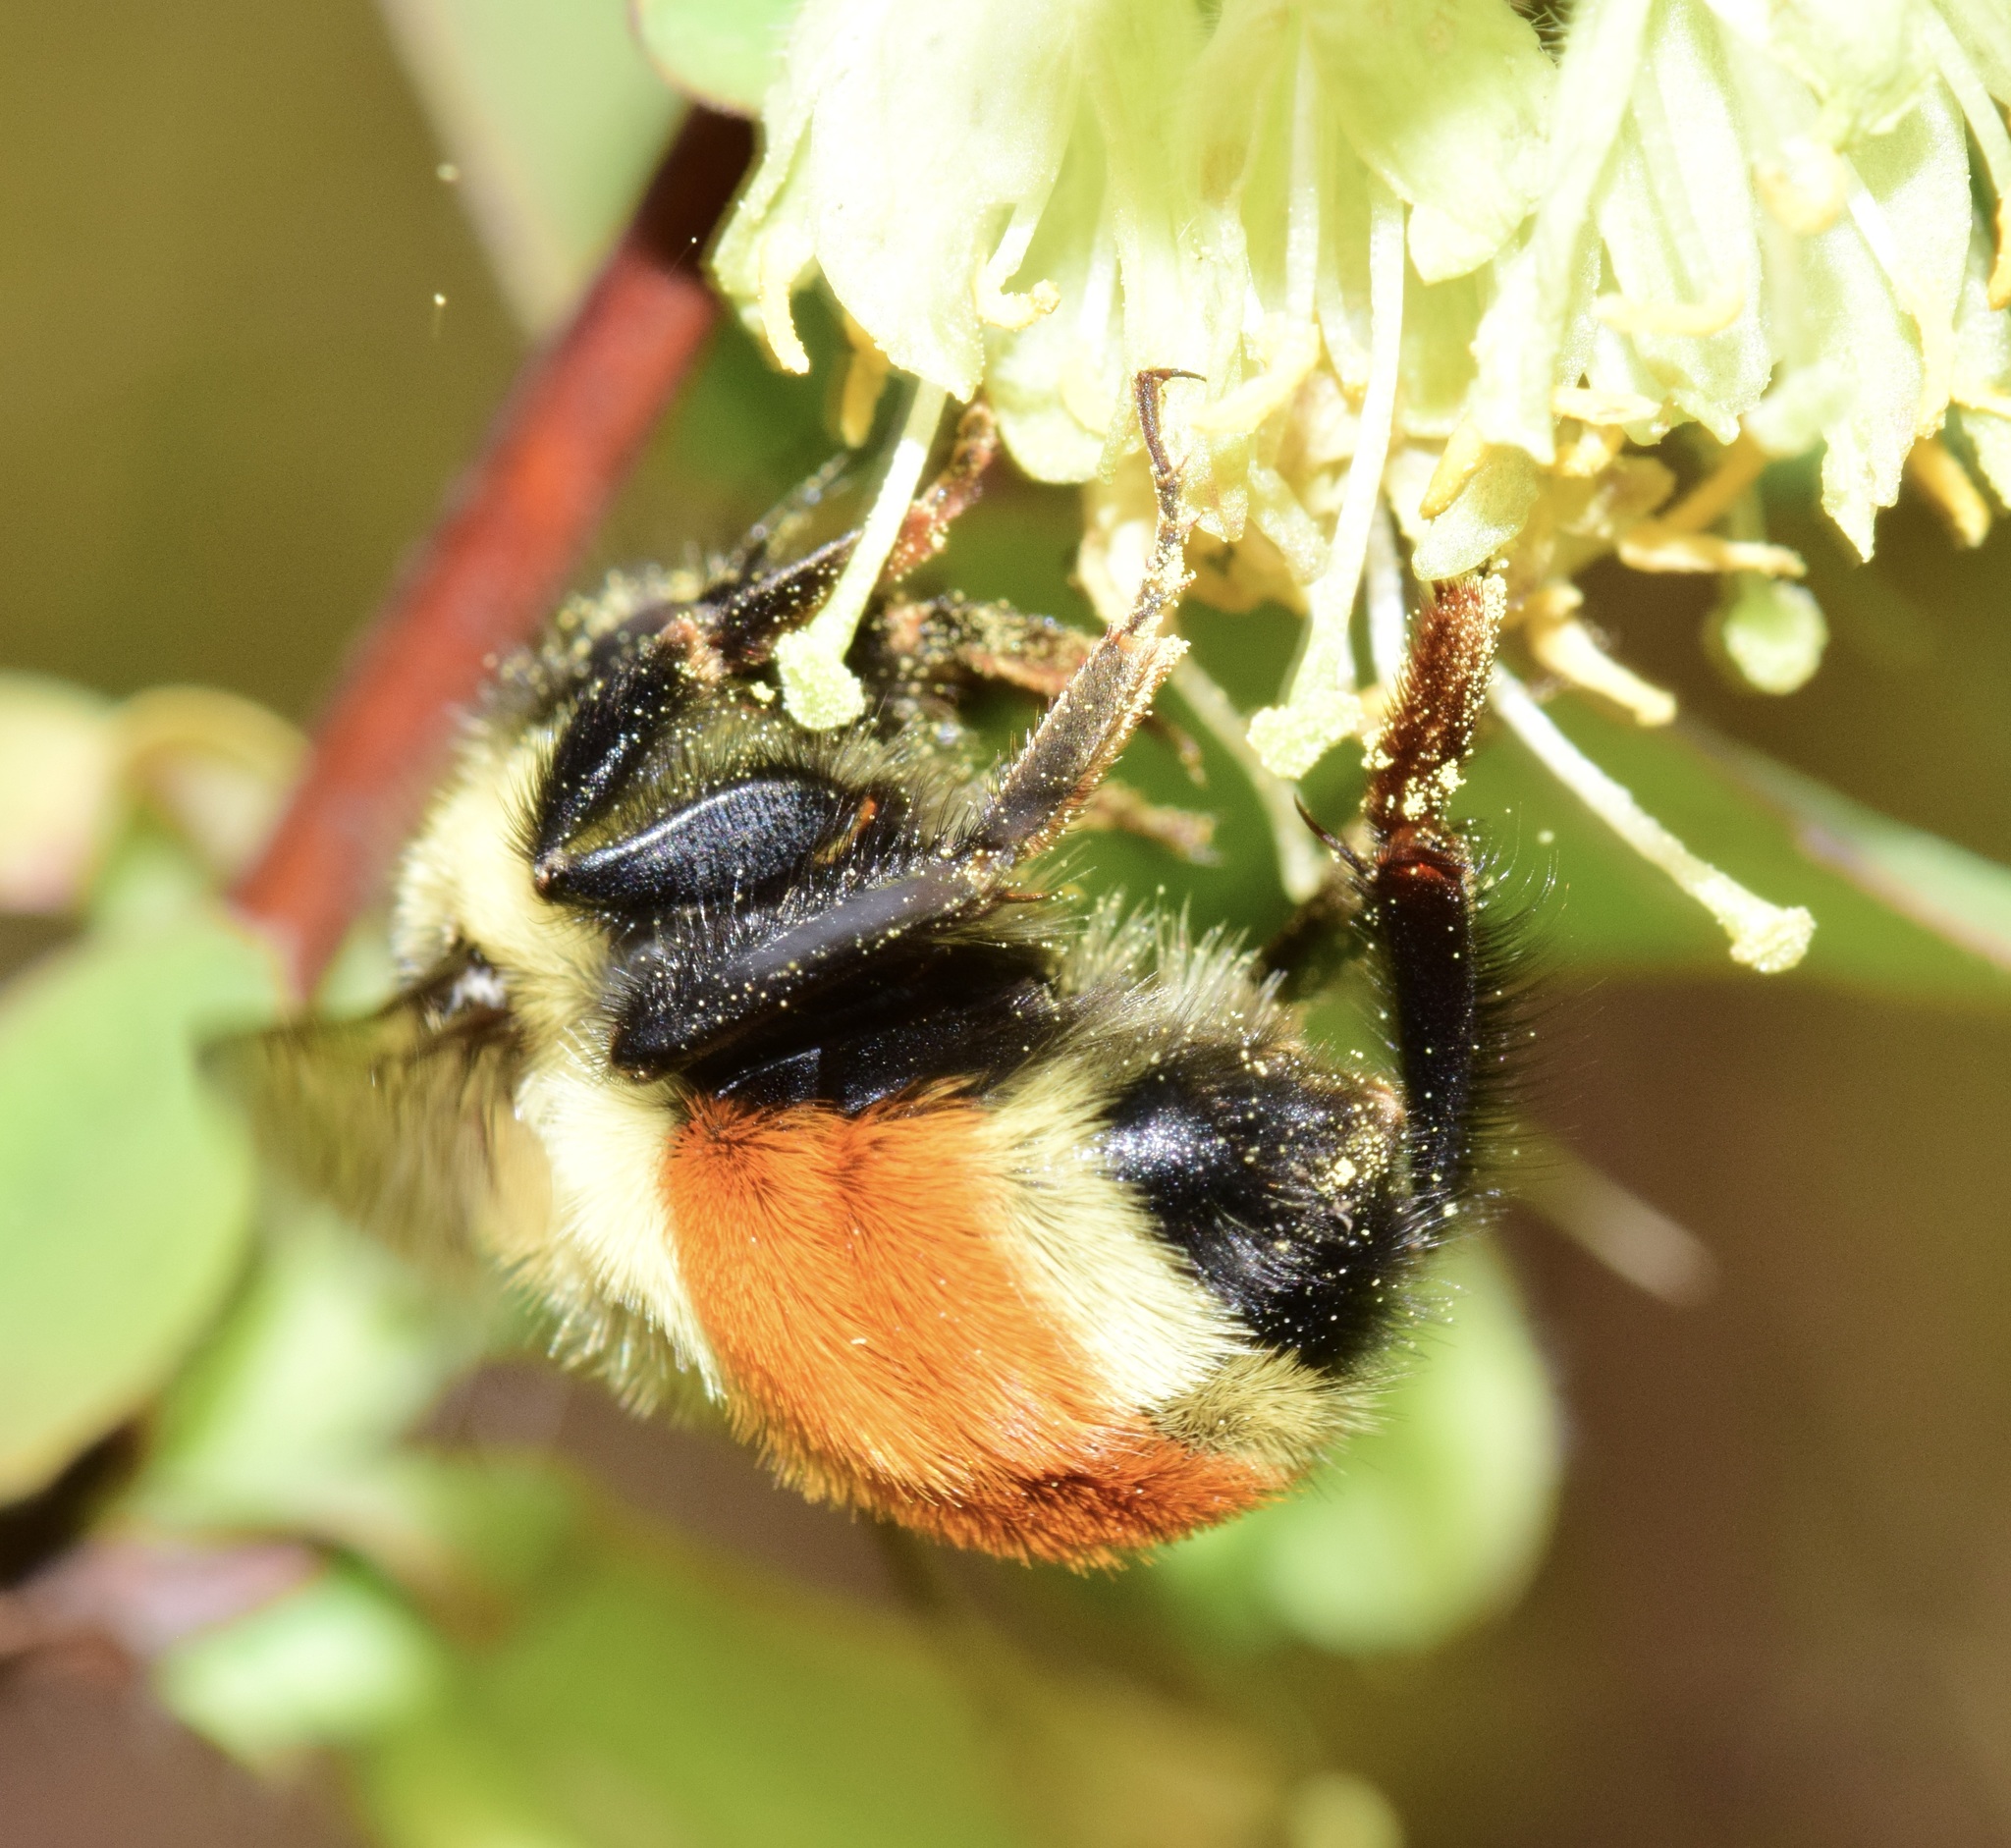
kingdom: Animalia
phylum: Arthropoda
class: Insecta
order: Hymenoptera
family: Apidae
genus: Bombus
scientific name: Bombus ternarius
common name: Tri-colored bumble bee
